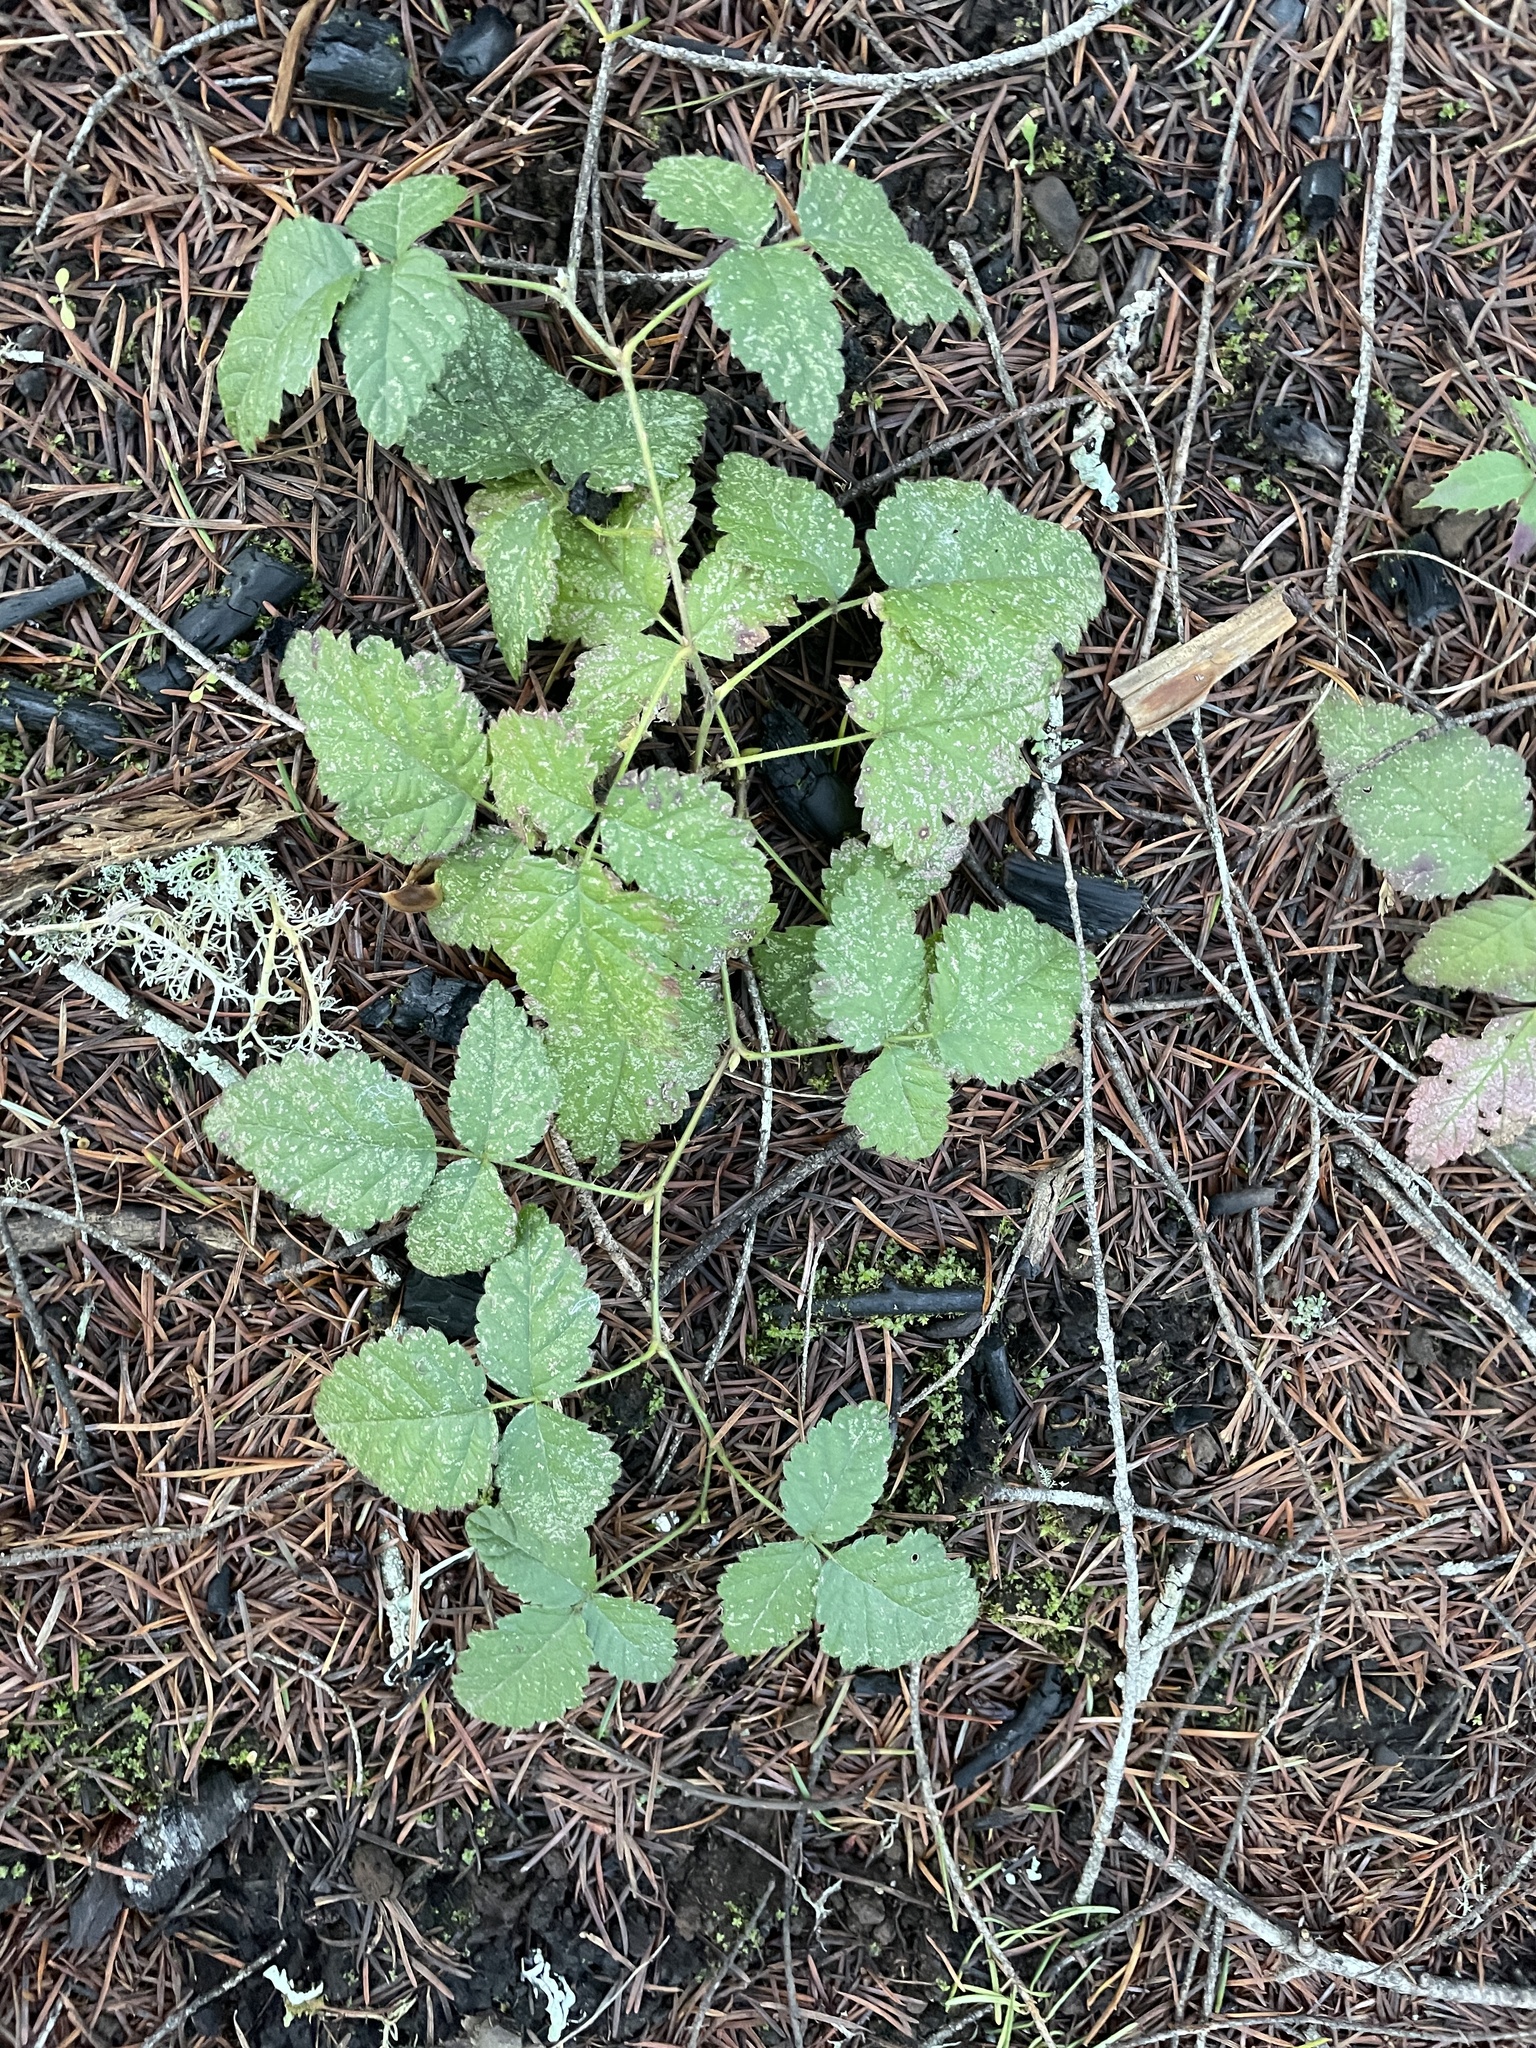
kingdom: Plantae
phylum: Tracheophyta
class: Magnoliopsida
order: Rosales
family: Rosaceae
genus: Rubus
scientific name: Rubus ursinus
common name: Pacific blackberry
